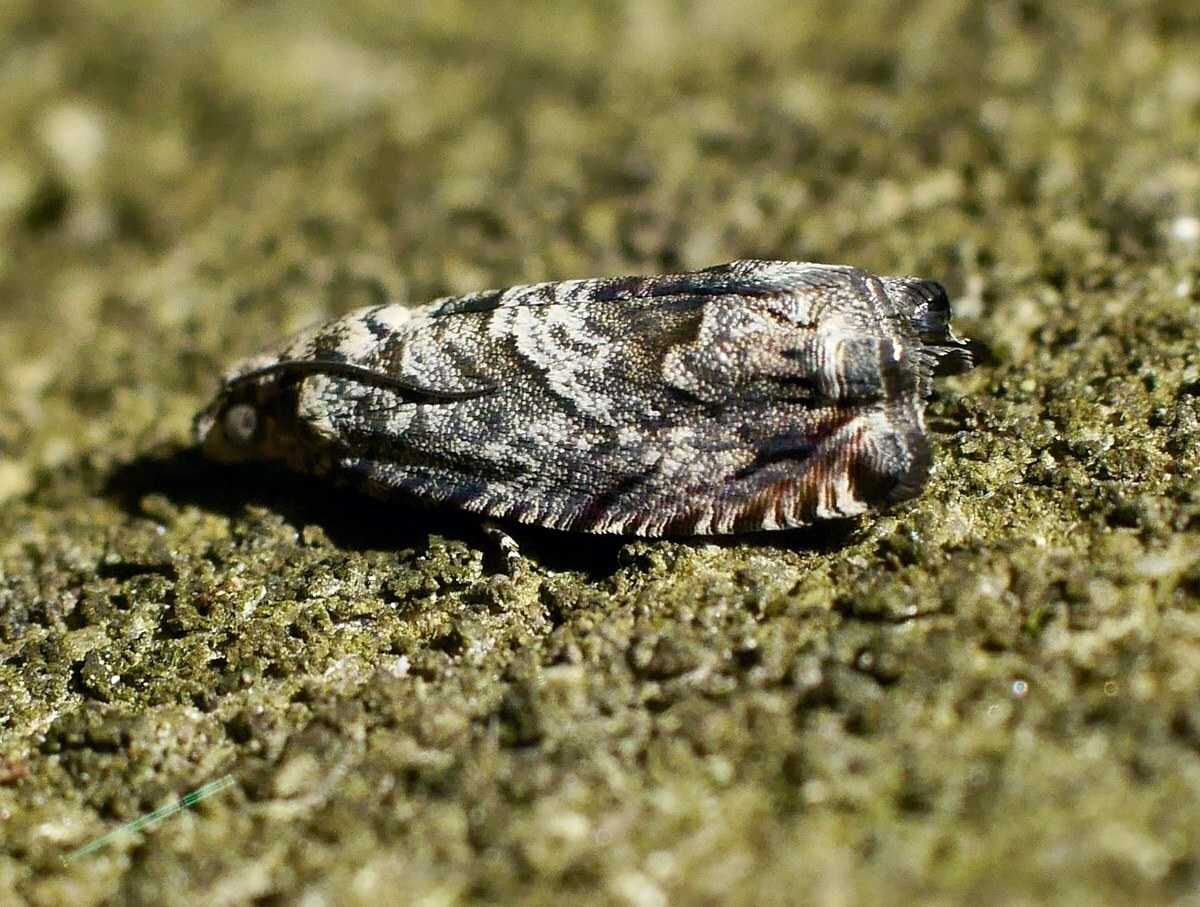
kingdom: Animalia
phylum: Arthropoda
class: Insecta
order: Lepidoptera
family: Tortricidae
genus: Cydia
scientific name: Cydia fagiglandana
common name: Large beech piercer
